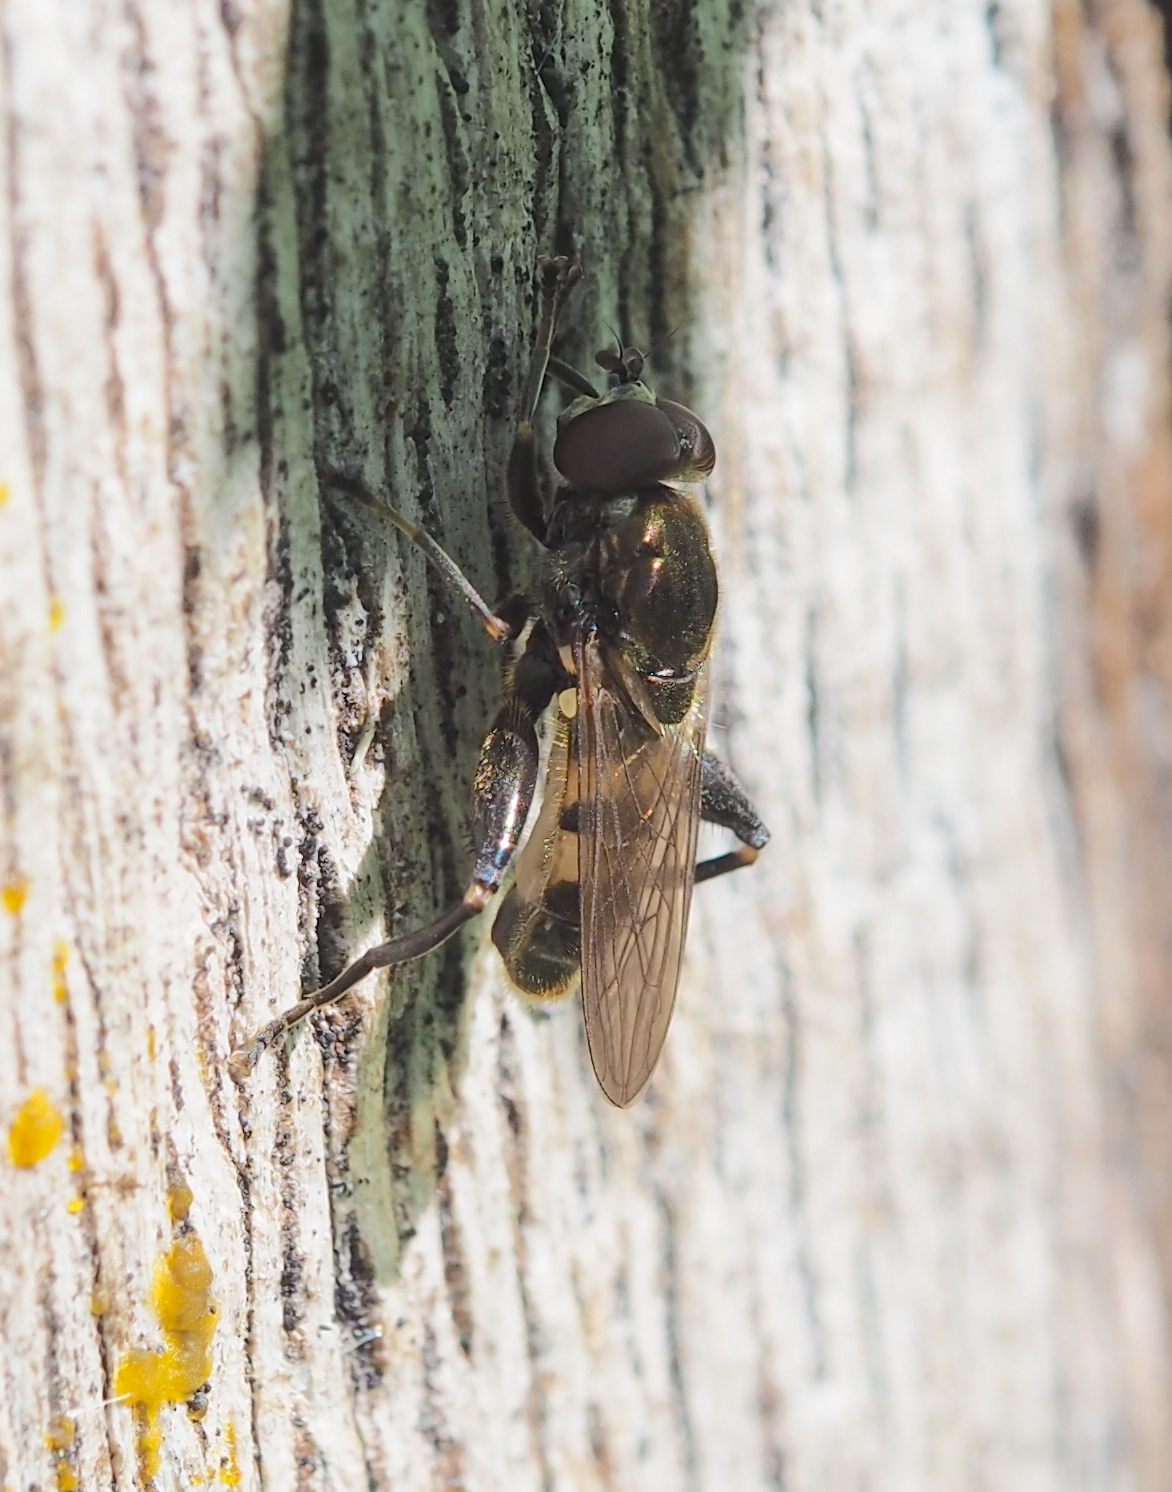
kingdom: Animalia
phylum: Arthropoda
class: Insecta
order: Diptera
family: Syrphidae
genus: Chalcosyrphus
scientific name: Chalcosyrphus nemorum
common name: Dusky-banded forest fly
